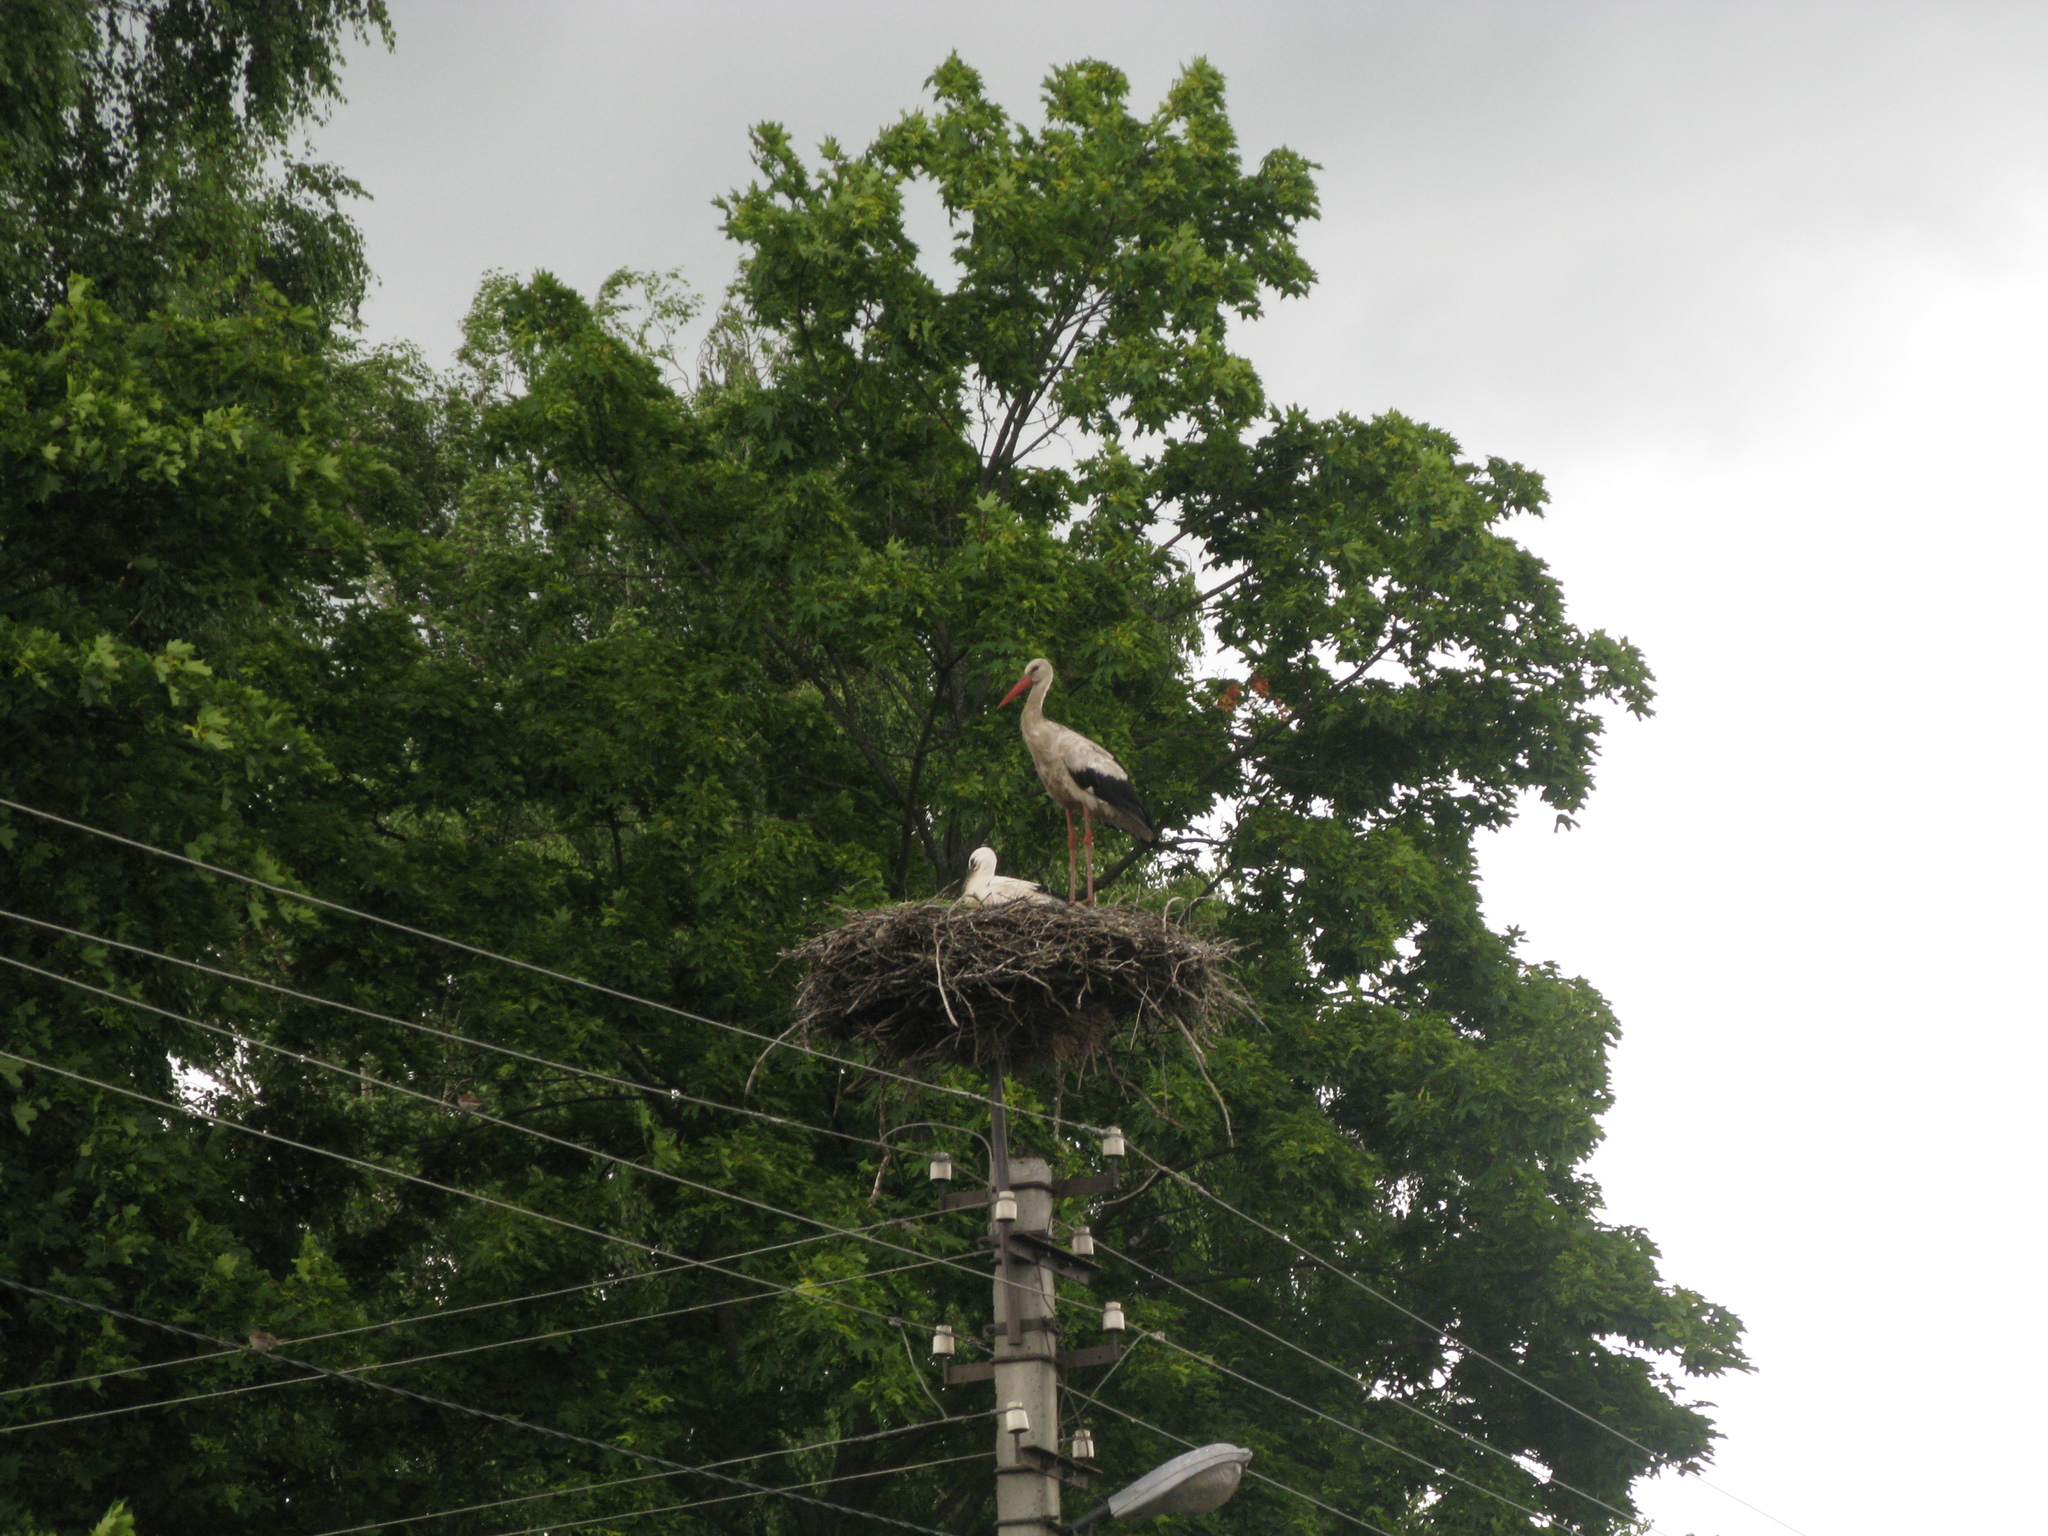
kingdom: Animalia
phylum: Chordata
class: Aves
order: Ciconiiformes
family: Ciconiidae
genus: Ciconia
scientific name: Ciconia ciconia
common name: White stork
